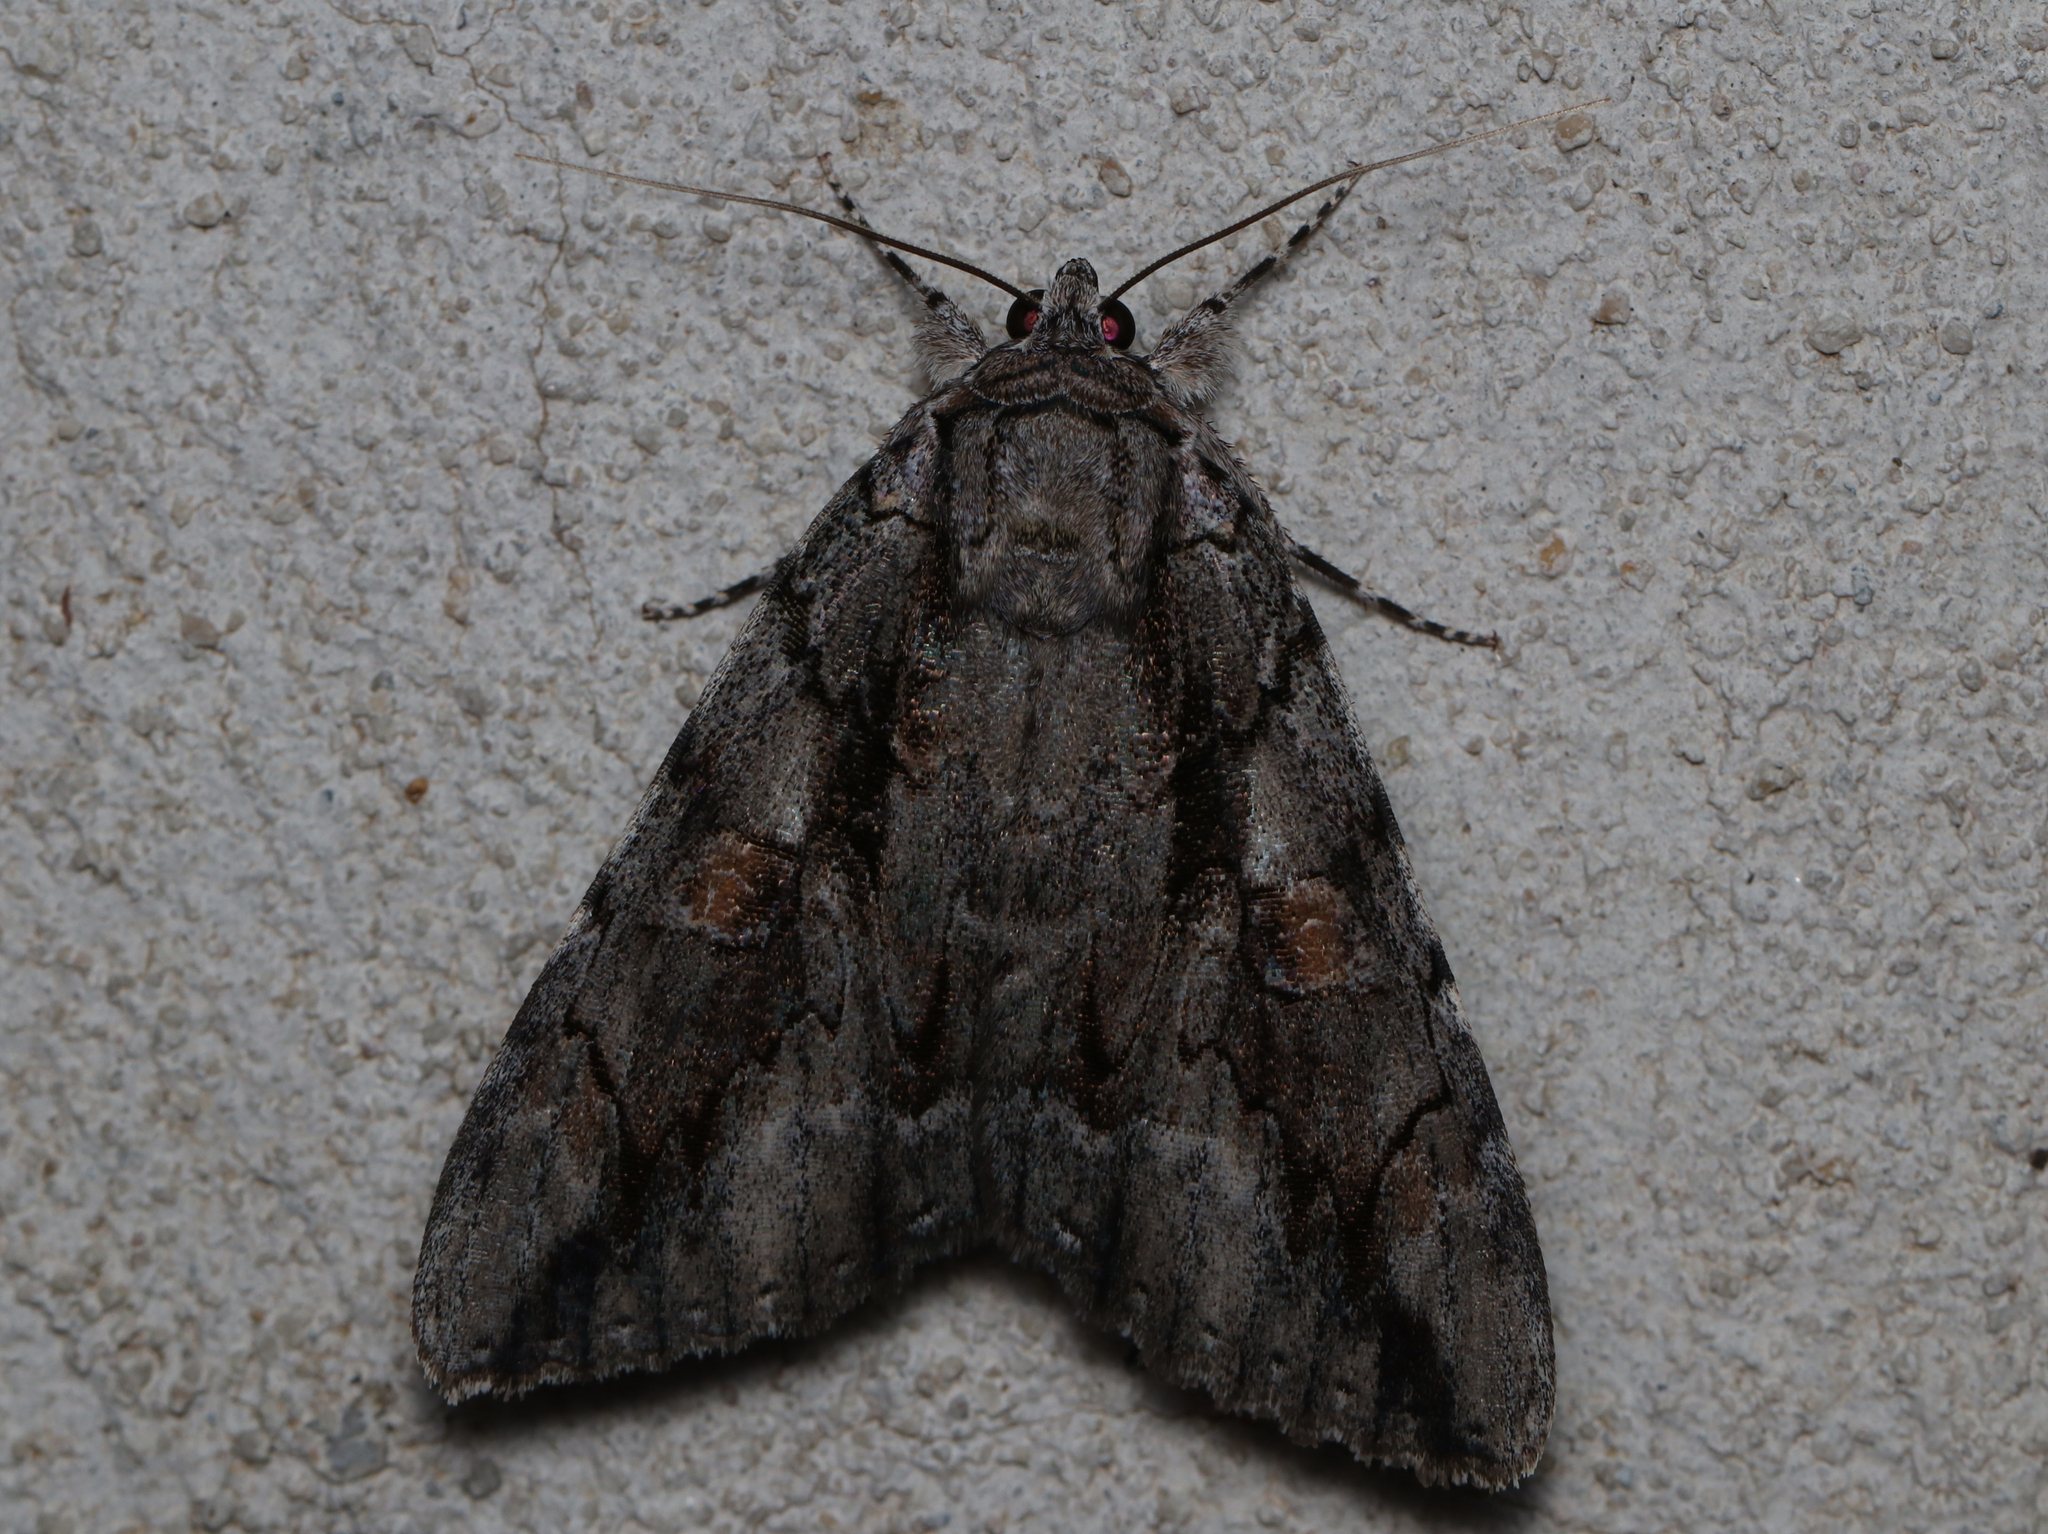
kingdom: Animalia
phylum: Arthropoda
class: Insecta
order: Lepidoptera
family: Erebidae
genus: Catocala
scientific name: Catocala flebilis
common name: Mournful underwing
